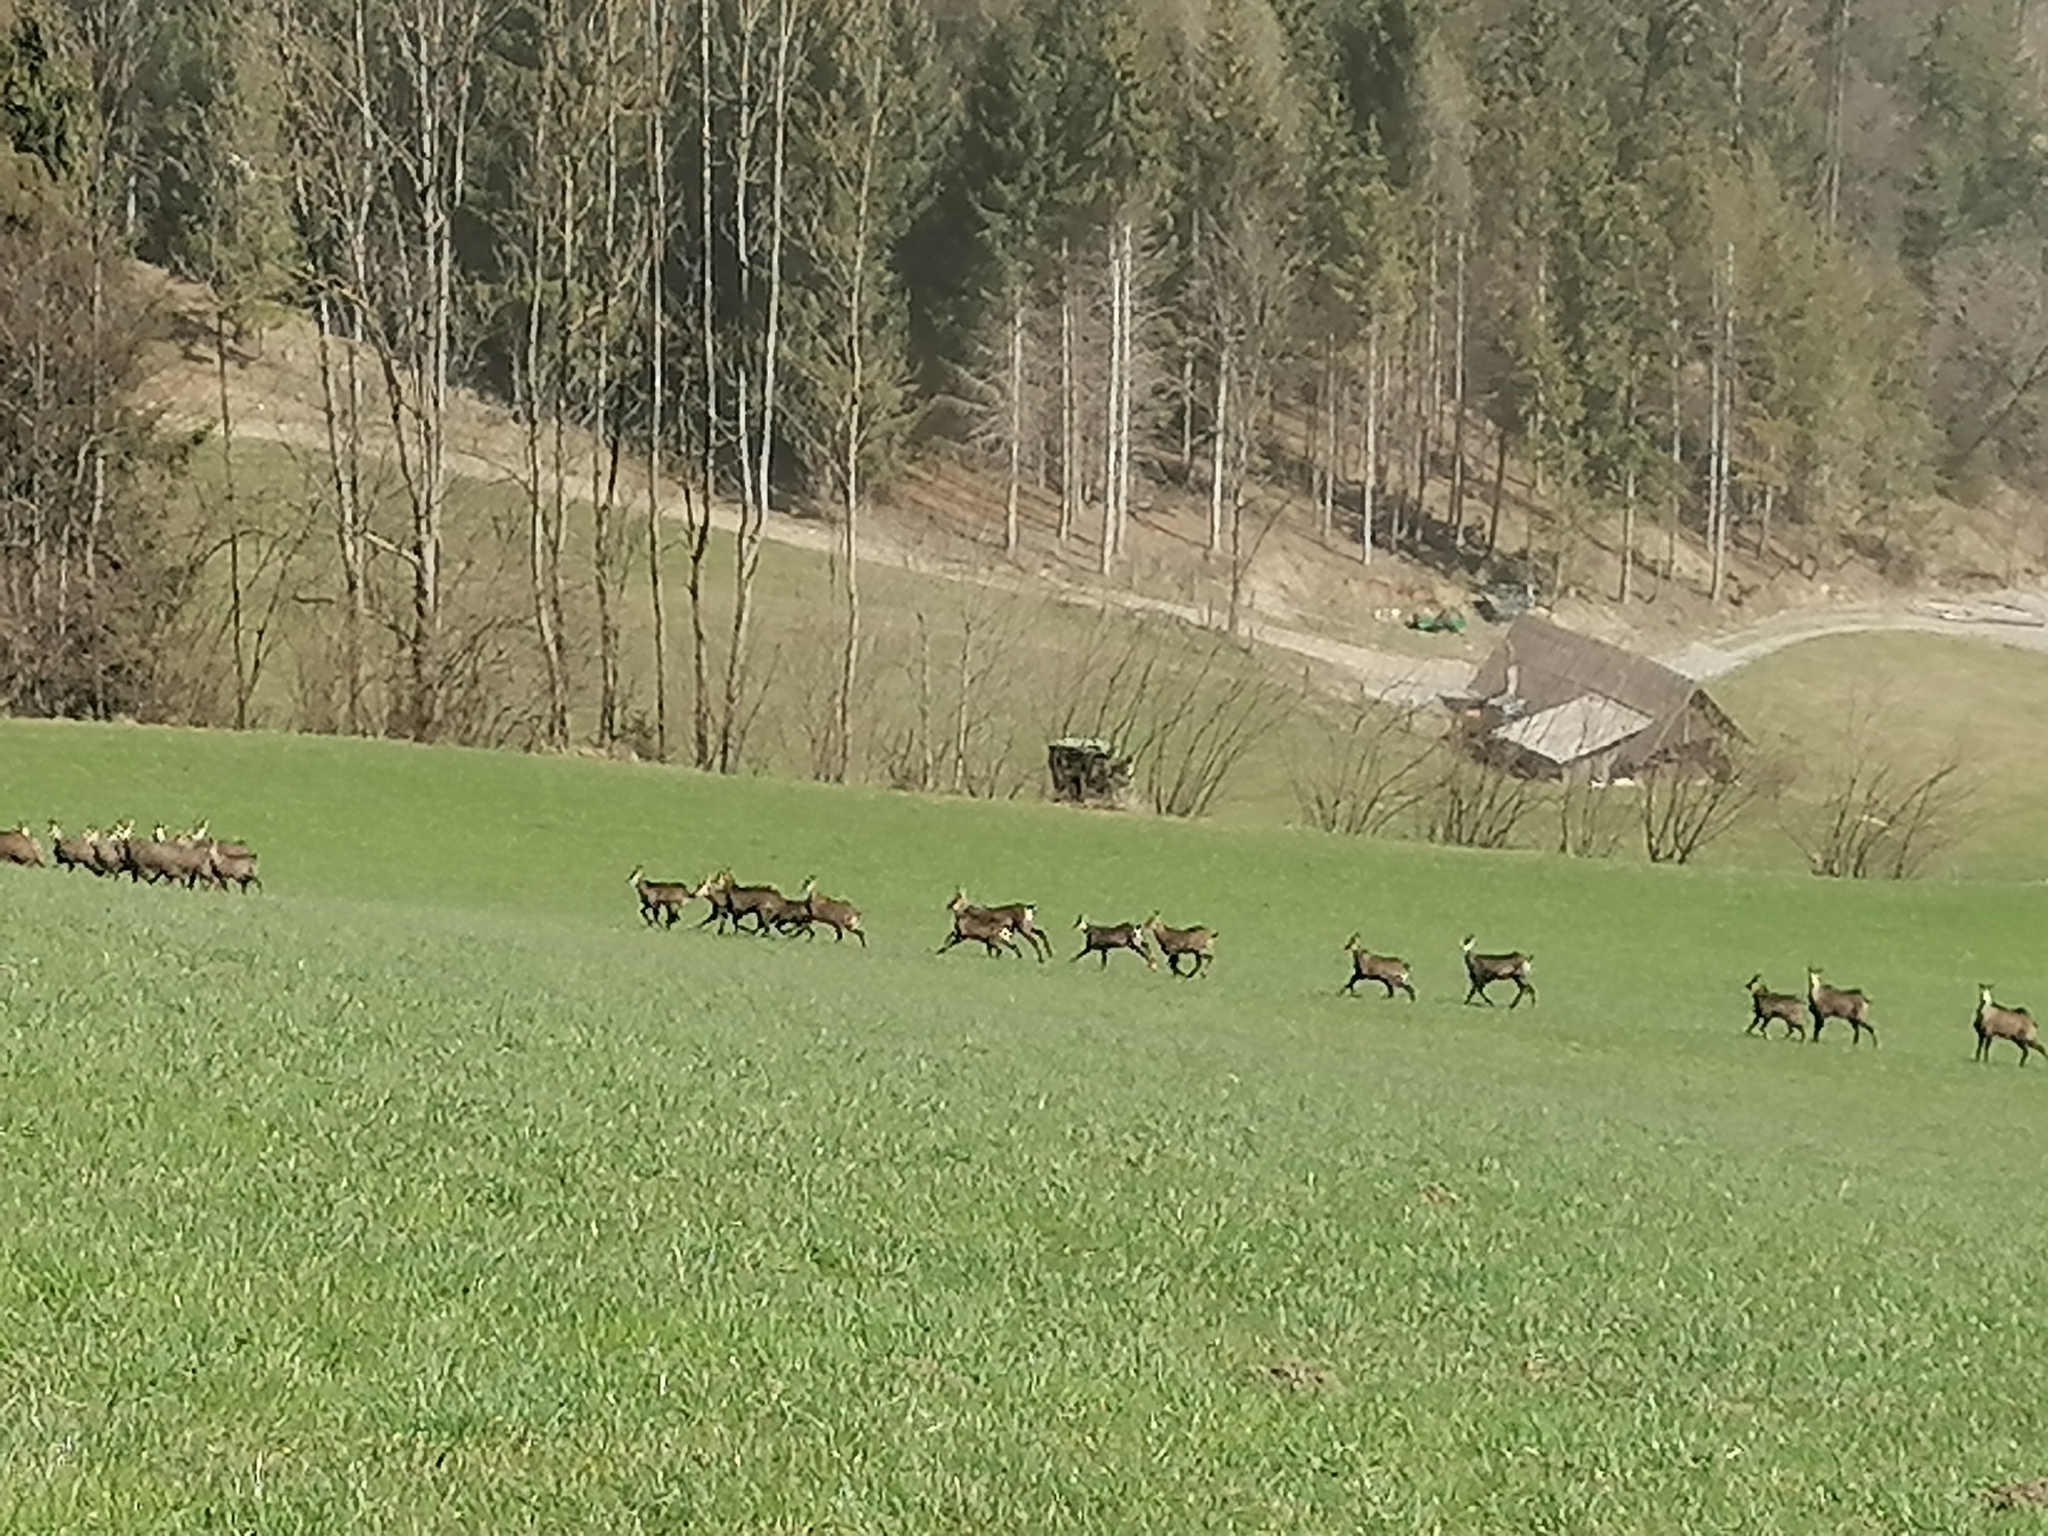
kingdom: Animalia
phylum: Chordata
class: Mammalia
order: Artiodactyla
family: Bovidae
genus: Rupicapra
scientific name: Rupicapra rupicapra
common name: Chamois
